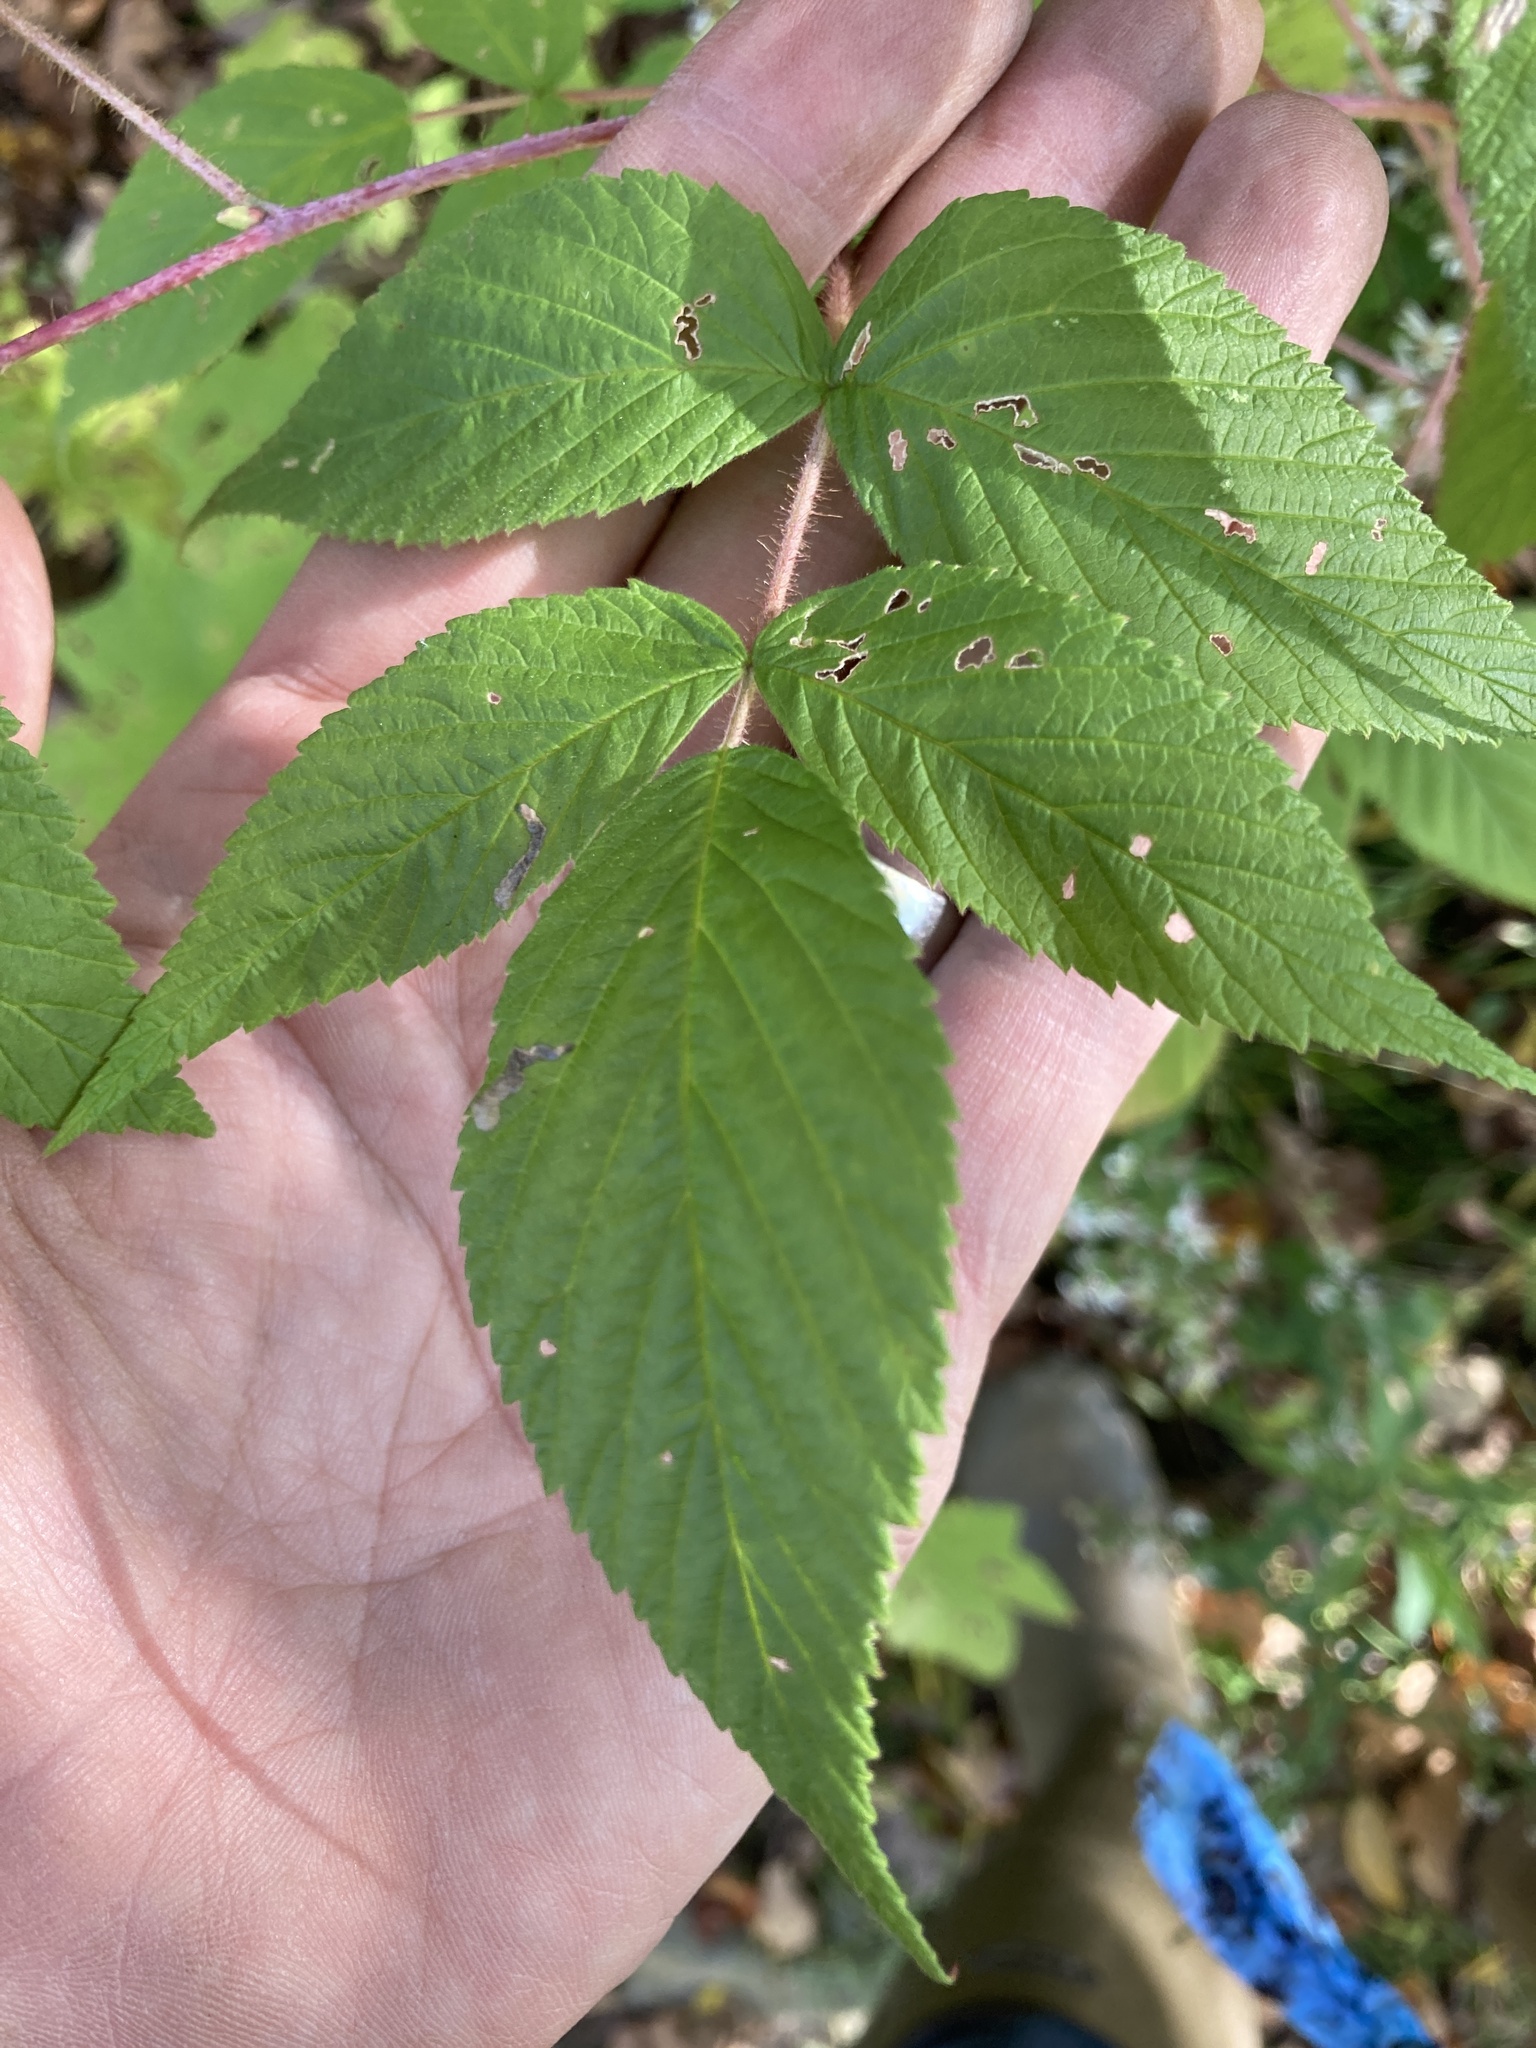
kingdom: Plantae
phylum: Tracheophyta
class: Magnoliopsida
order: Rosales
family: Rosaceae
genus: Rubus
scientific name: Rubus idaeus
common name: Raspberry
